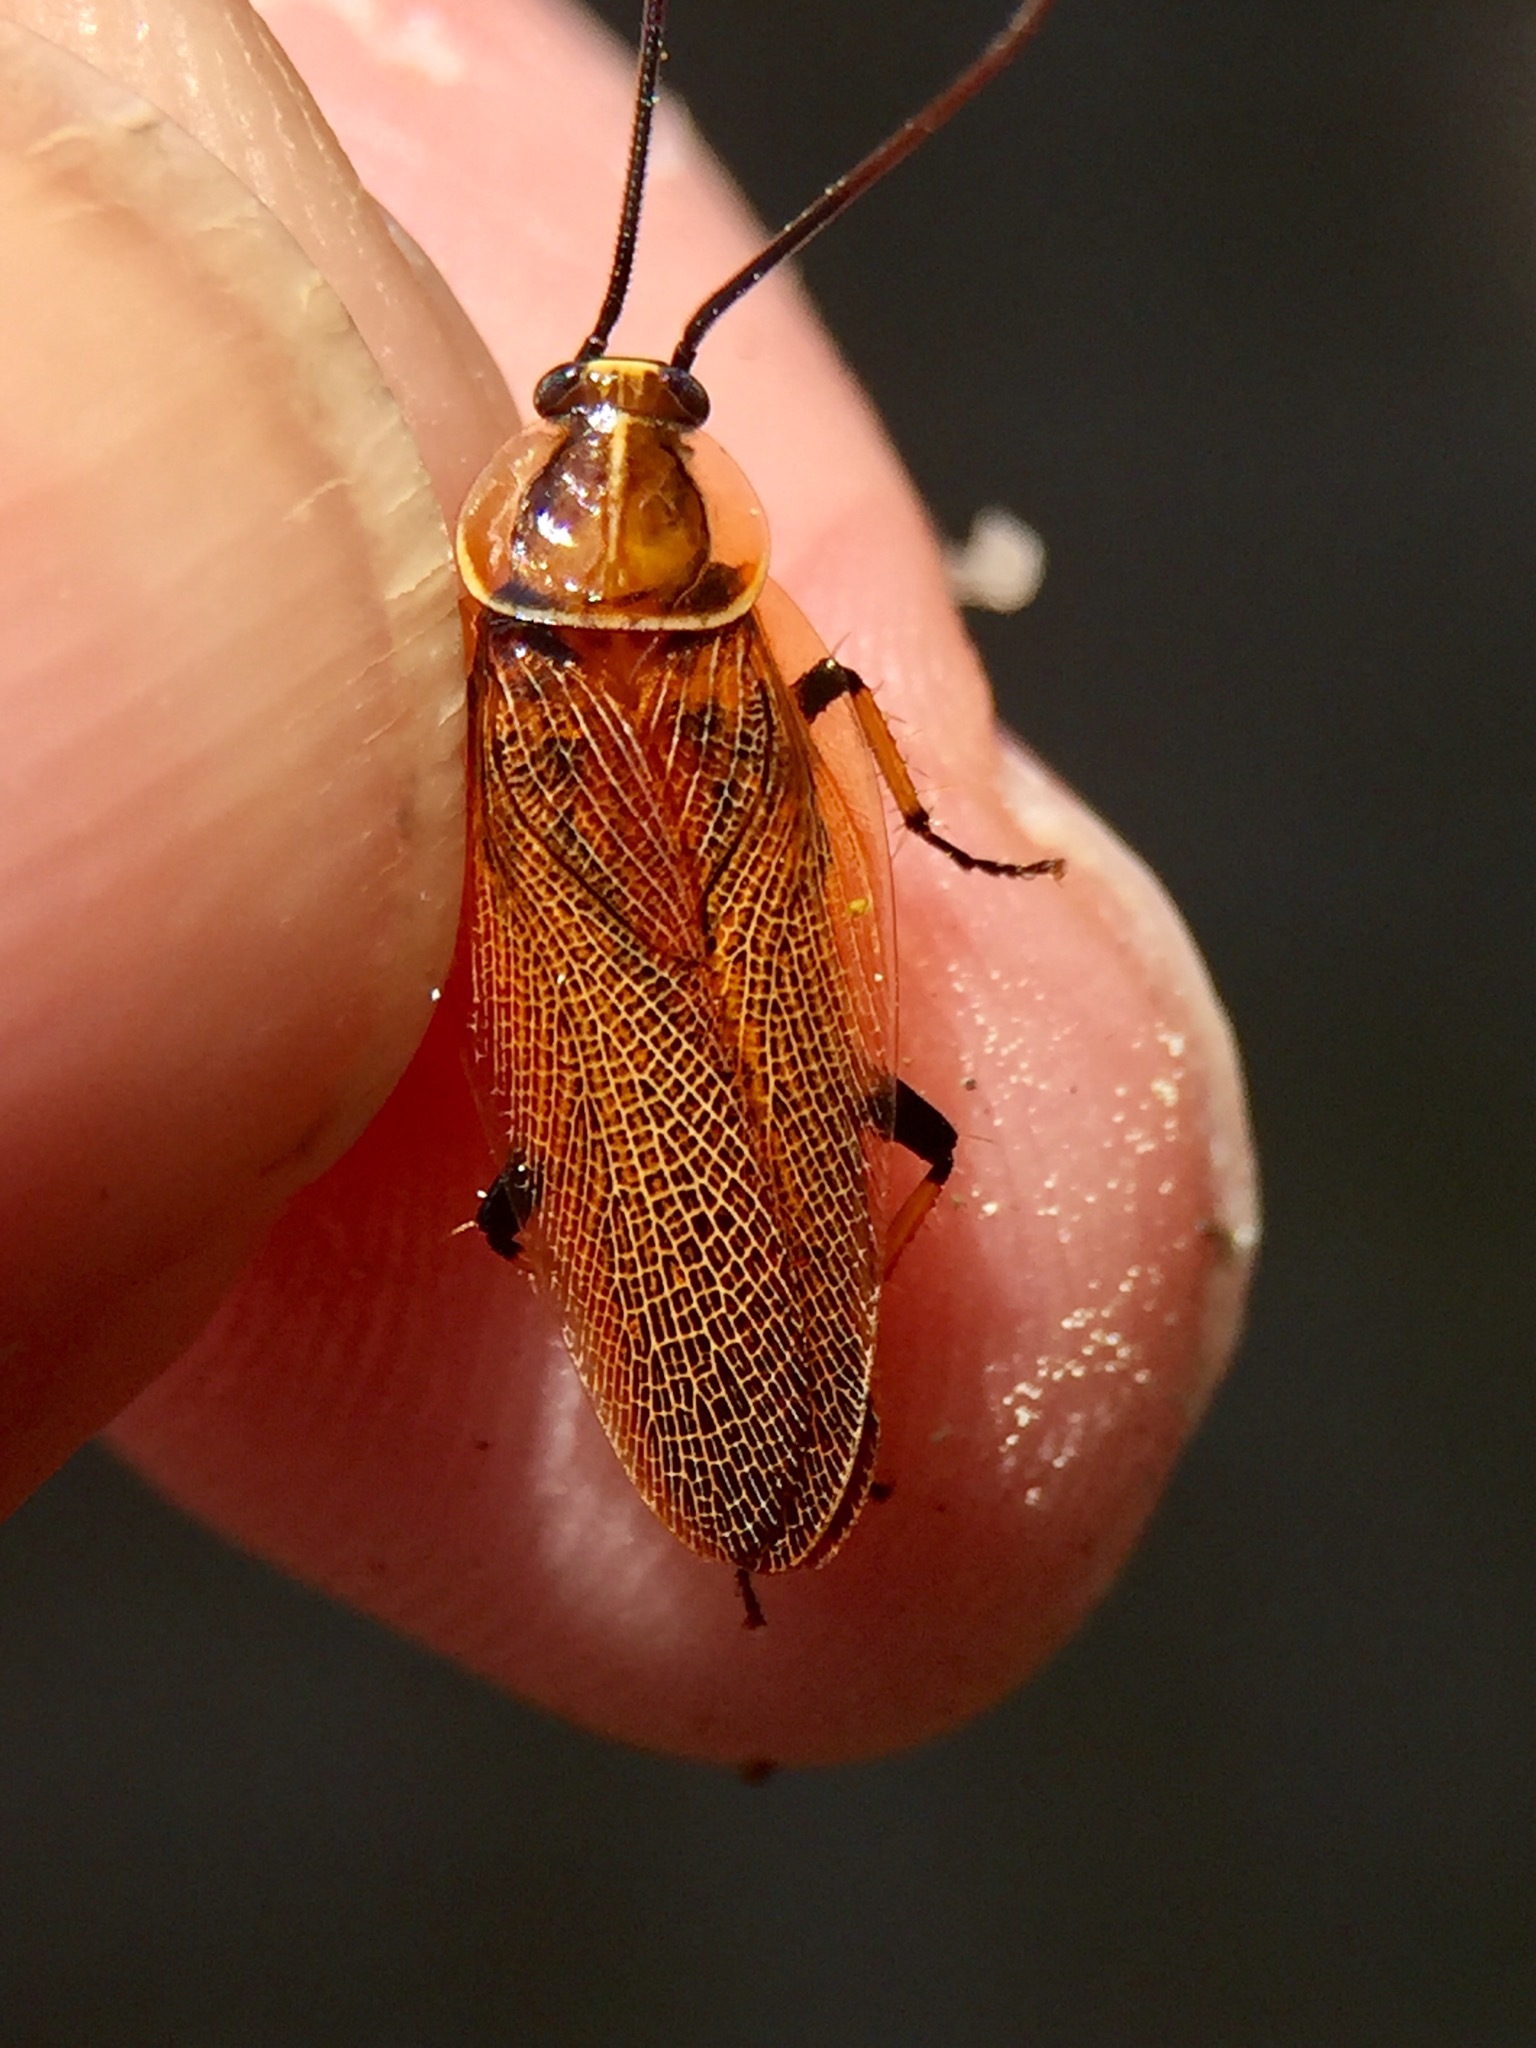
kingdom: Animalia
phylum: Arthropoda
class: Insecta
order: Blattodea
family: Ectobiidae
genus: Balta
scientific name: Balta bicolor
